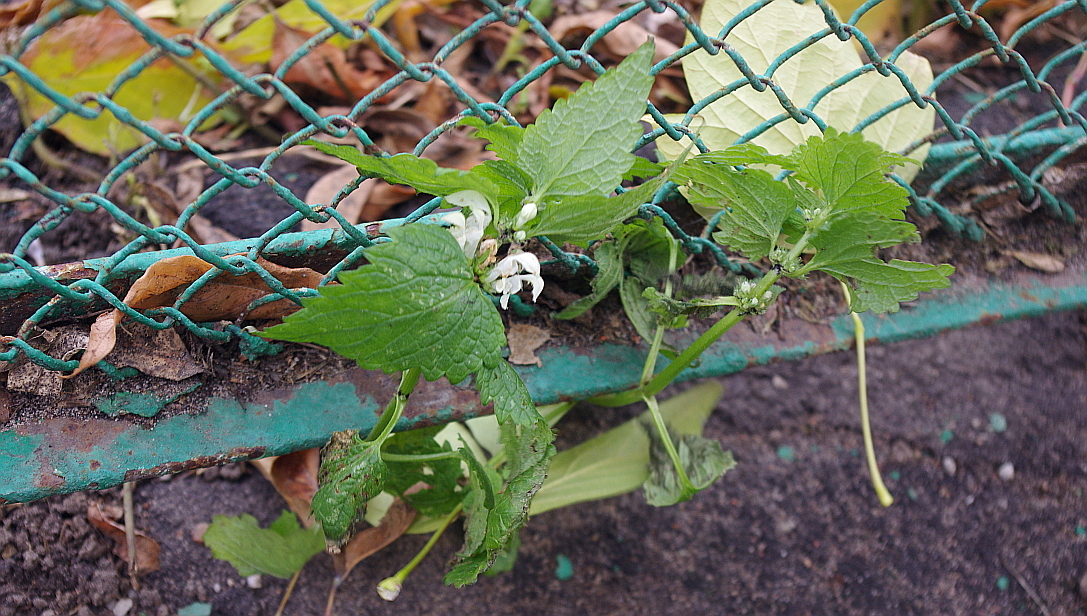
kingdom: Plantae
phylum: Tracheophyta
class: Magnoliopsida
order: Lamiales
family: Lamiaceae
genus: Lamium
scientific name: Lamium album
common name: White dead-nettle
